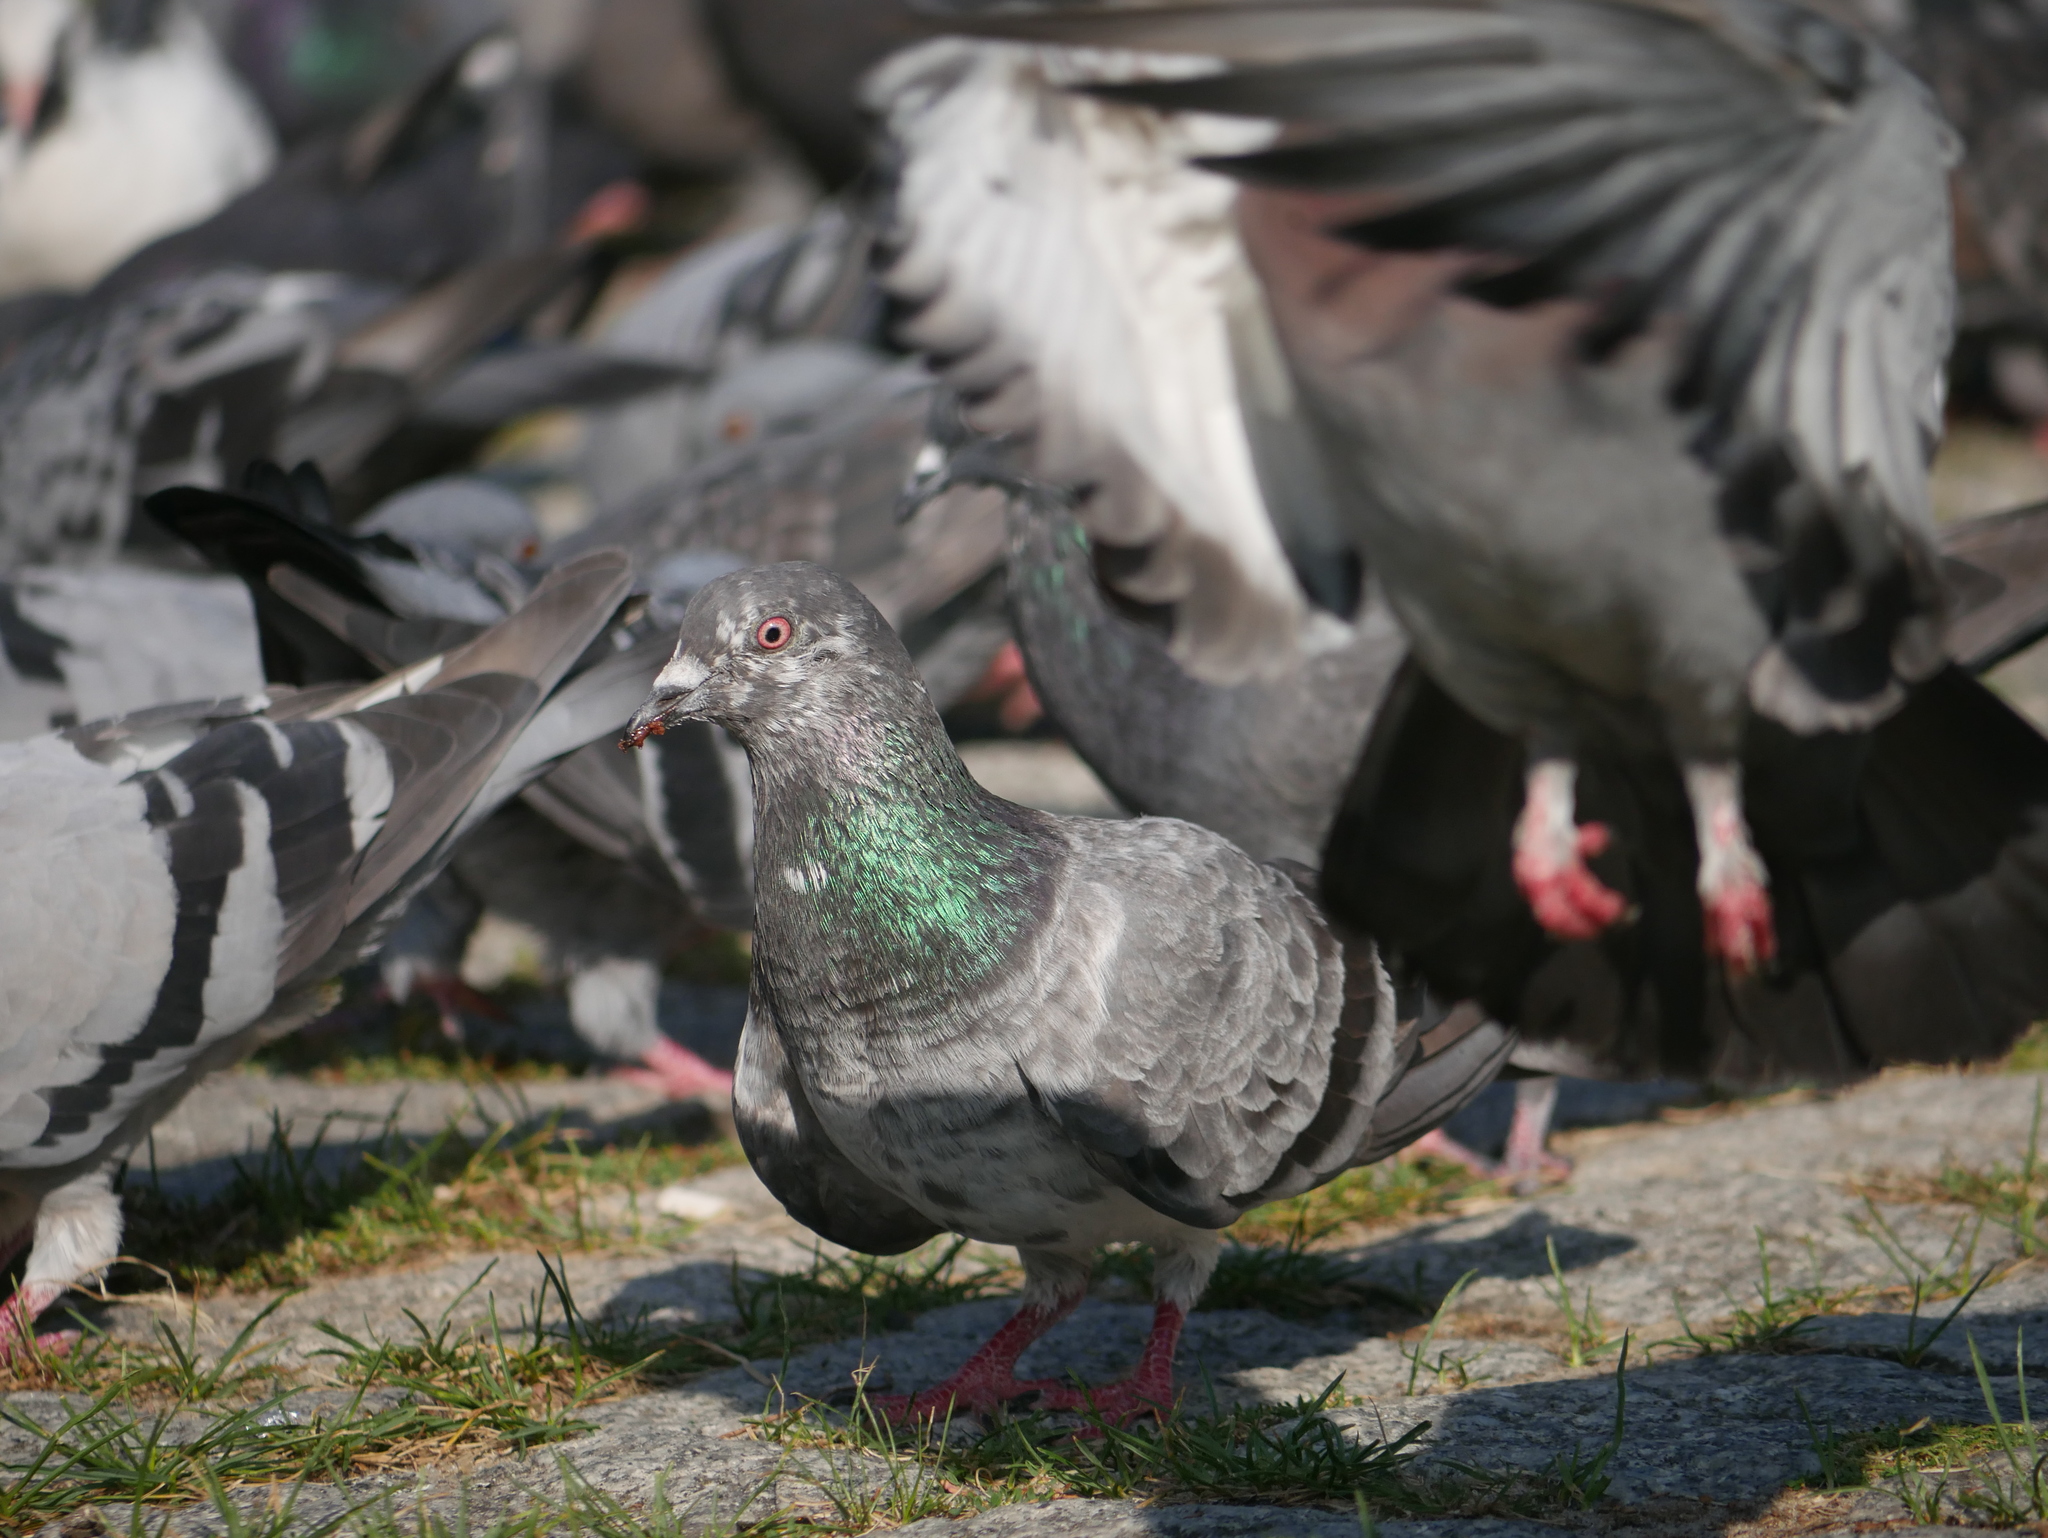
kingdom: Animalia
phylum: Chordata
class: Aves
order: Columbiformes
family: Columbidae
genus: Columba
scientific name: Columba livia
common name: Rock pigeon
